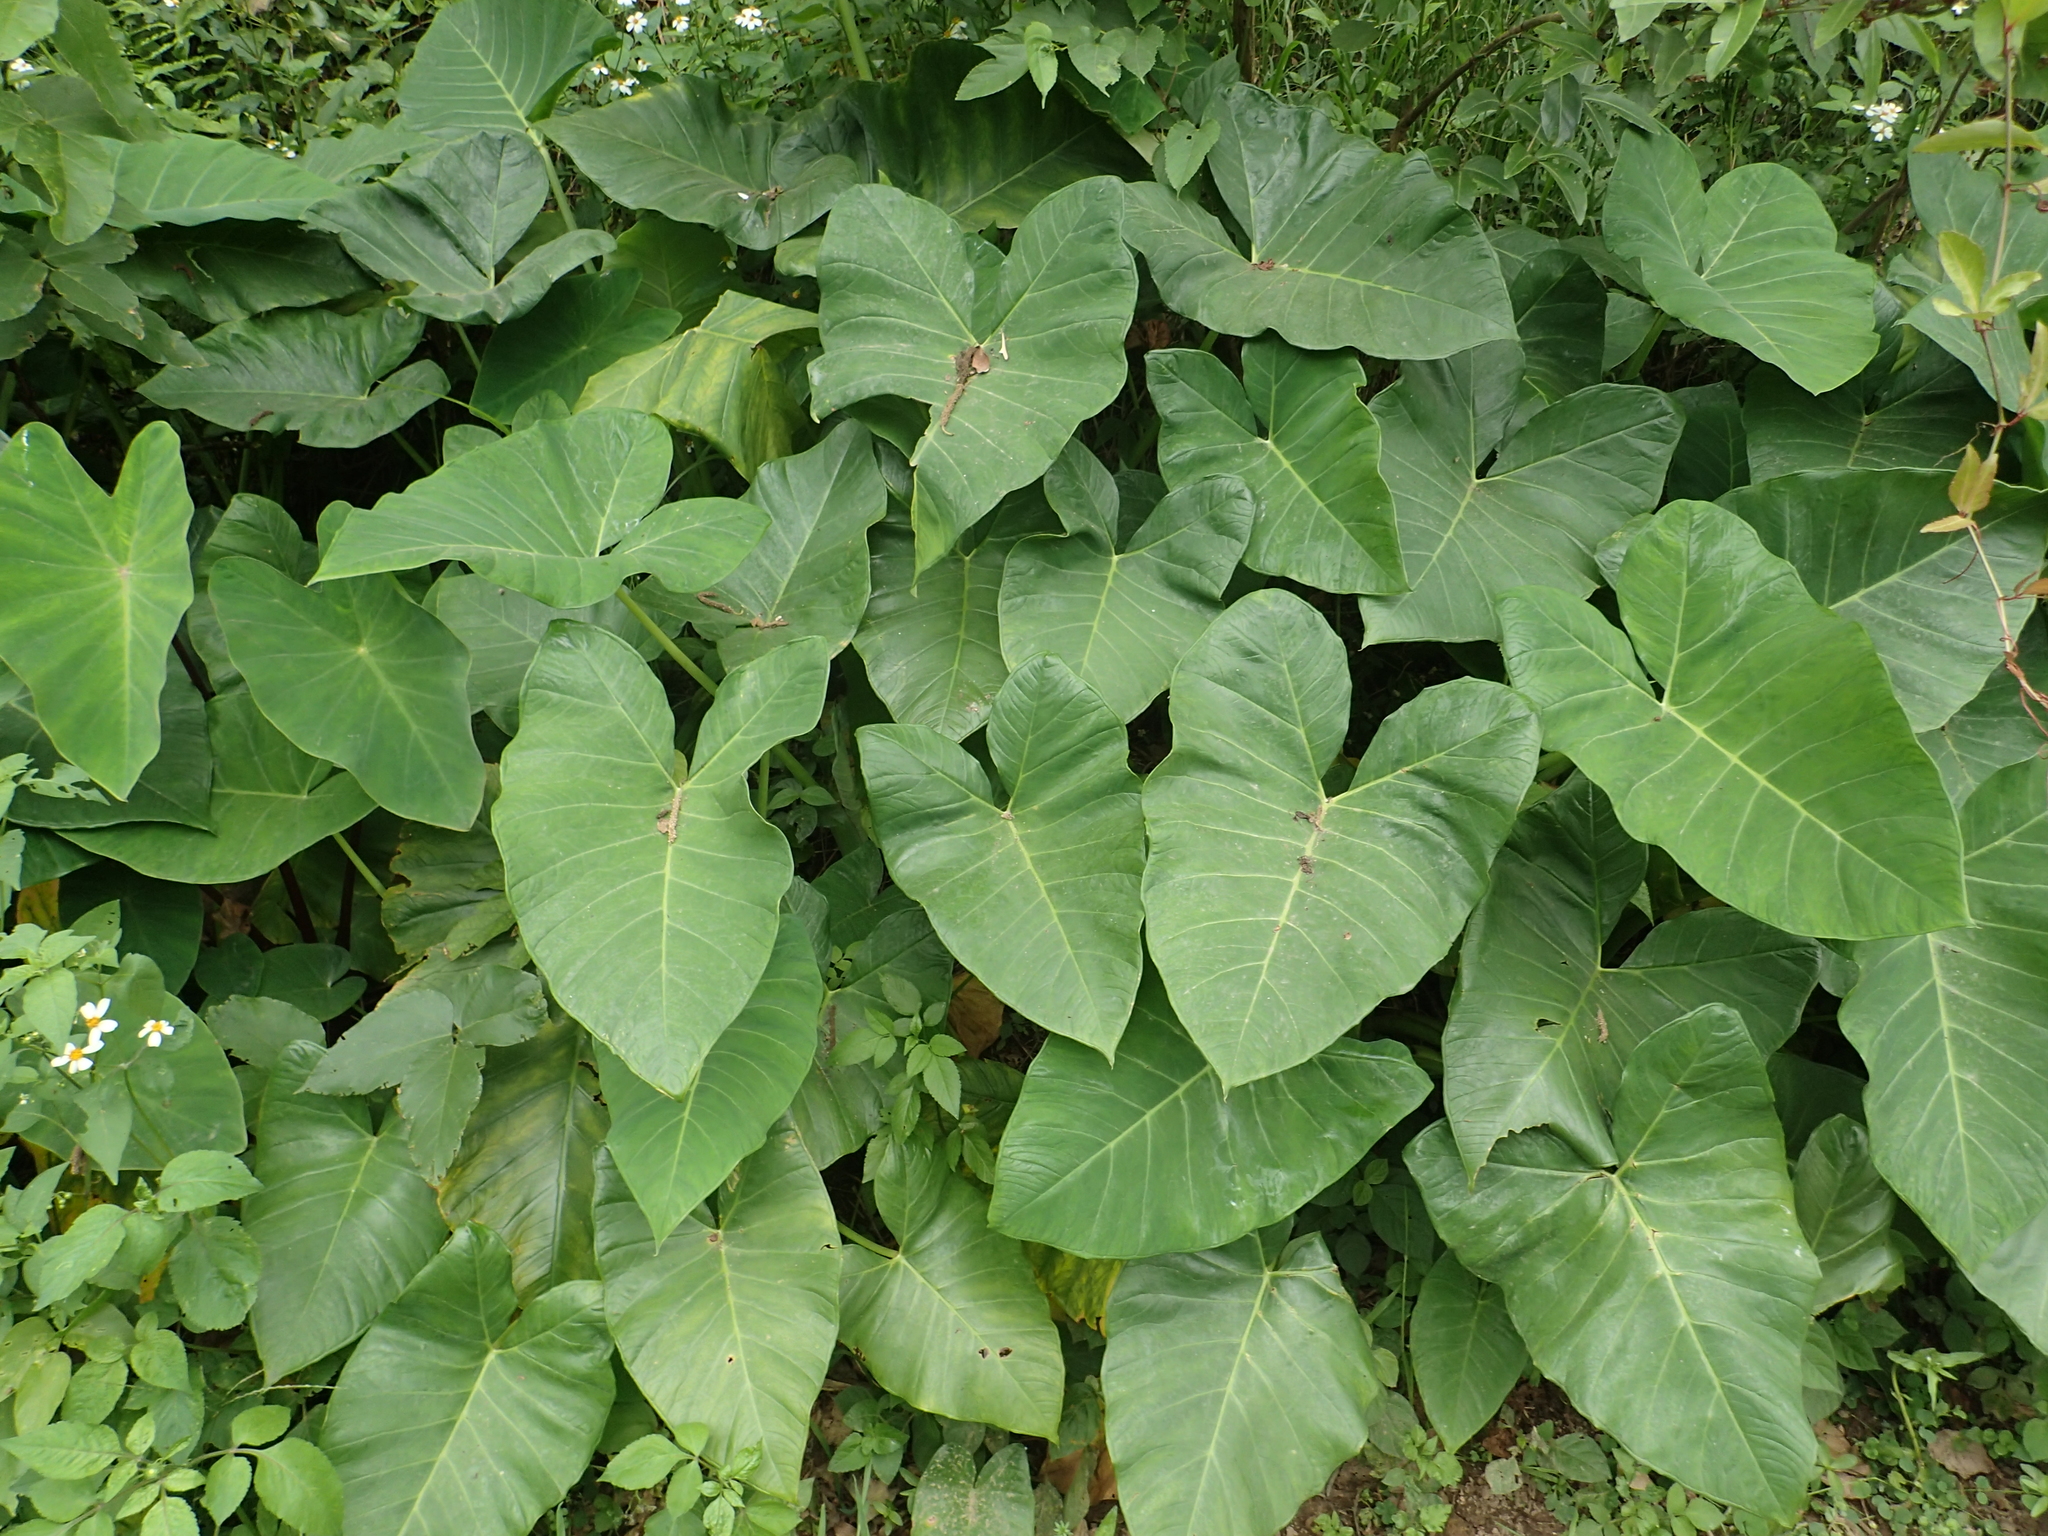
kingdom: Plantae
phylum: Tracheophyta
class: Liliopsida
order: Alismatales
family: Araceae
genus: Xanthosoma
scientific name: Xanthosoma sagittifolium
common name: Arrowleaf elephant's ear
